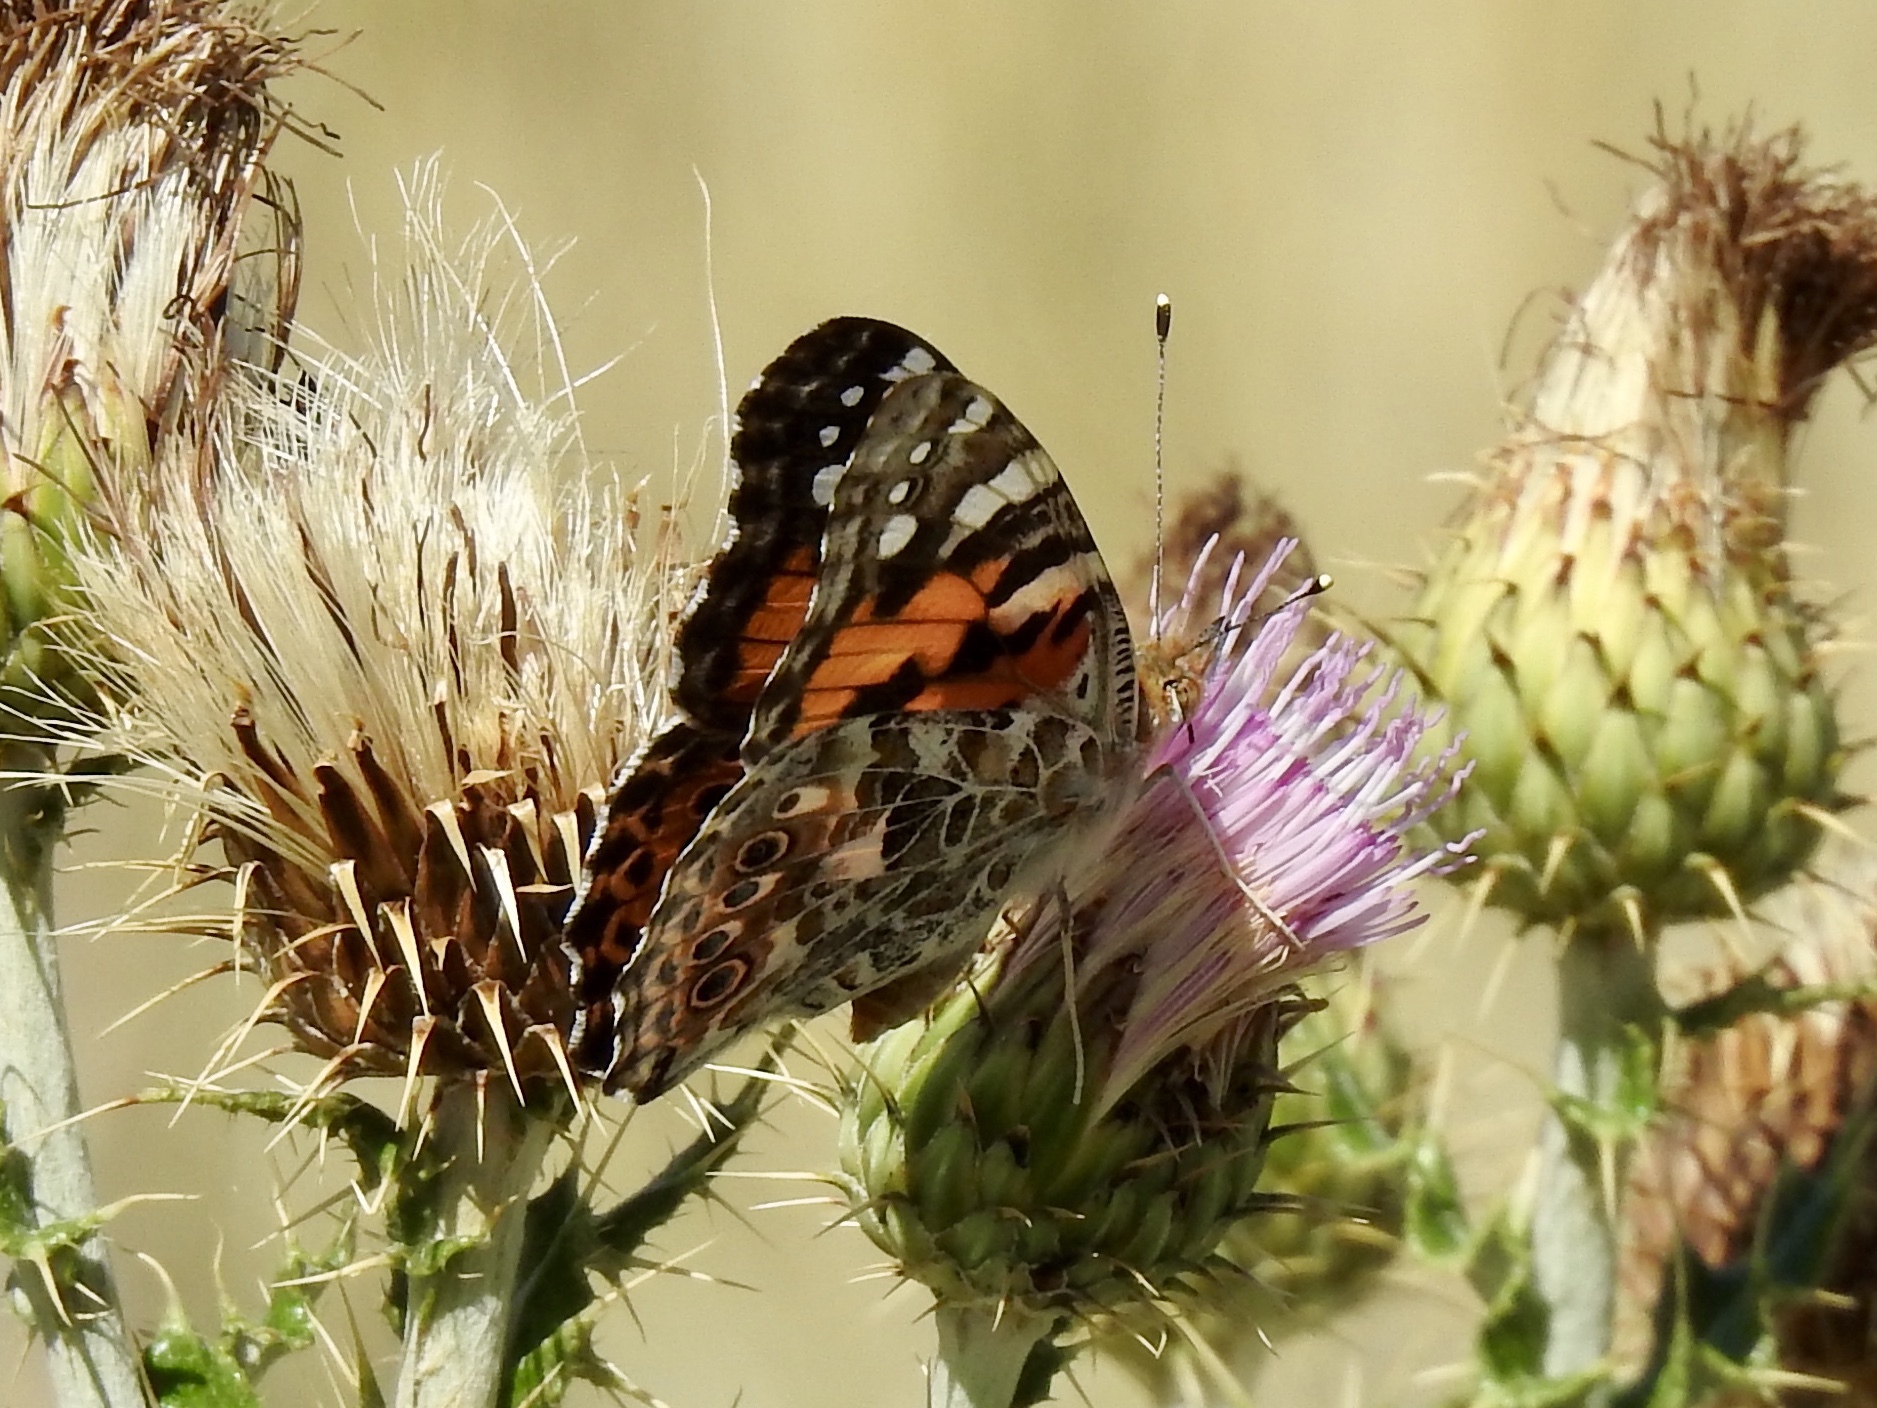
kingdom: Animalia
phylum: Arthropoda
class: Insecta
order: Lepidoptera
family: Nymphalidae
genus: Vanessa
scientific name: Vanessa cardui
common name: Painted lady
